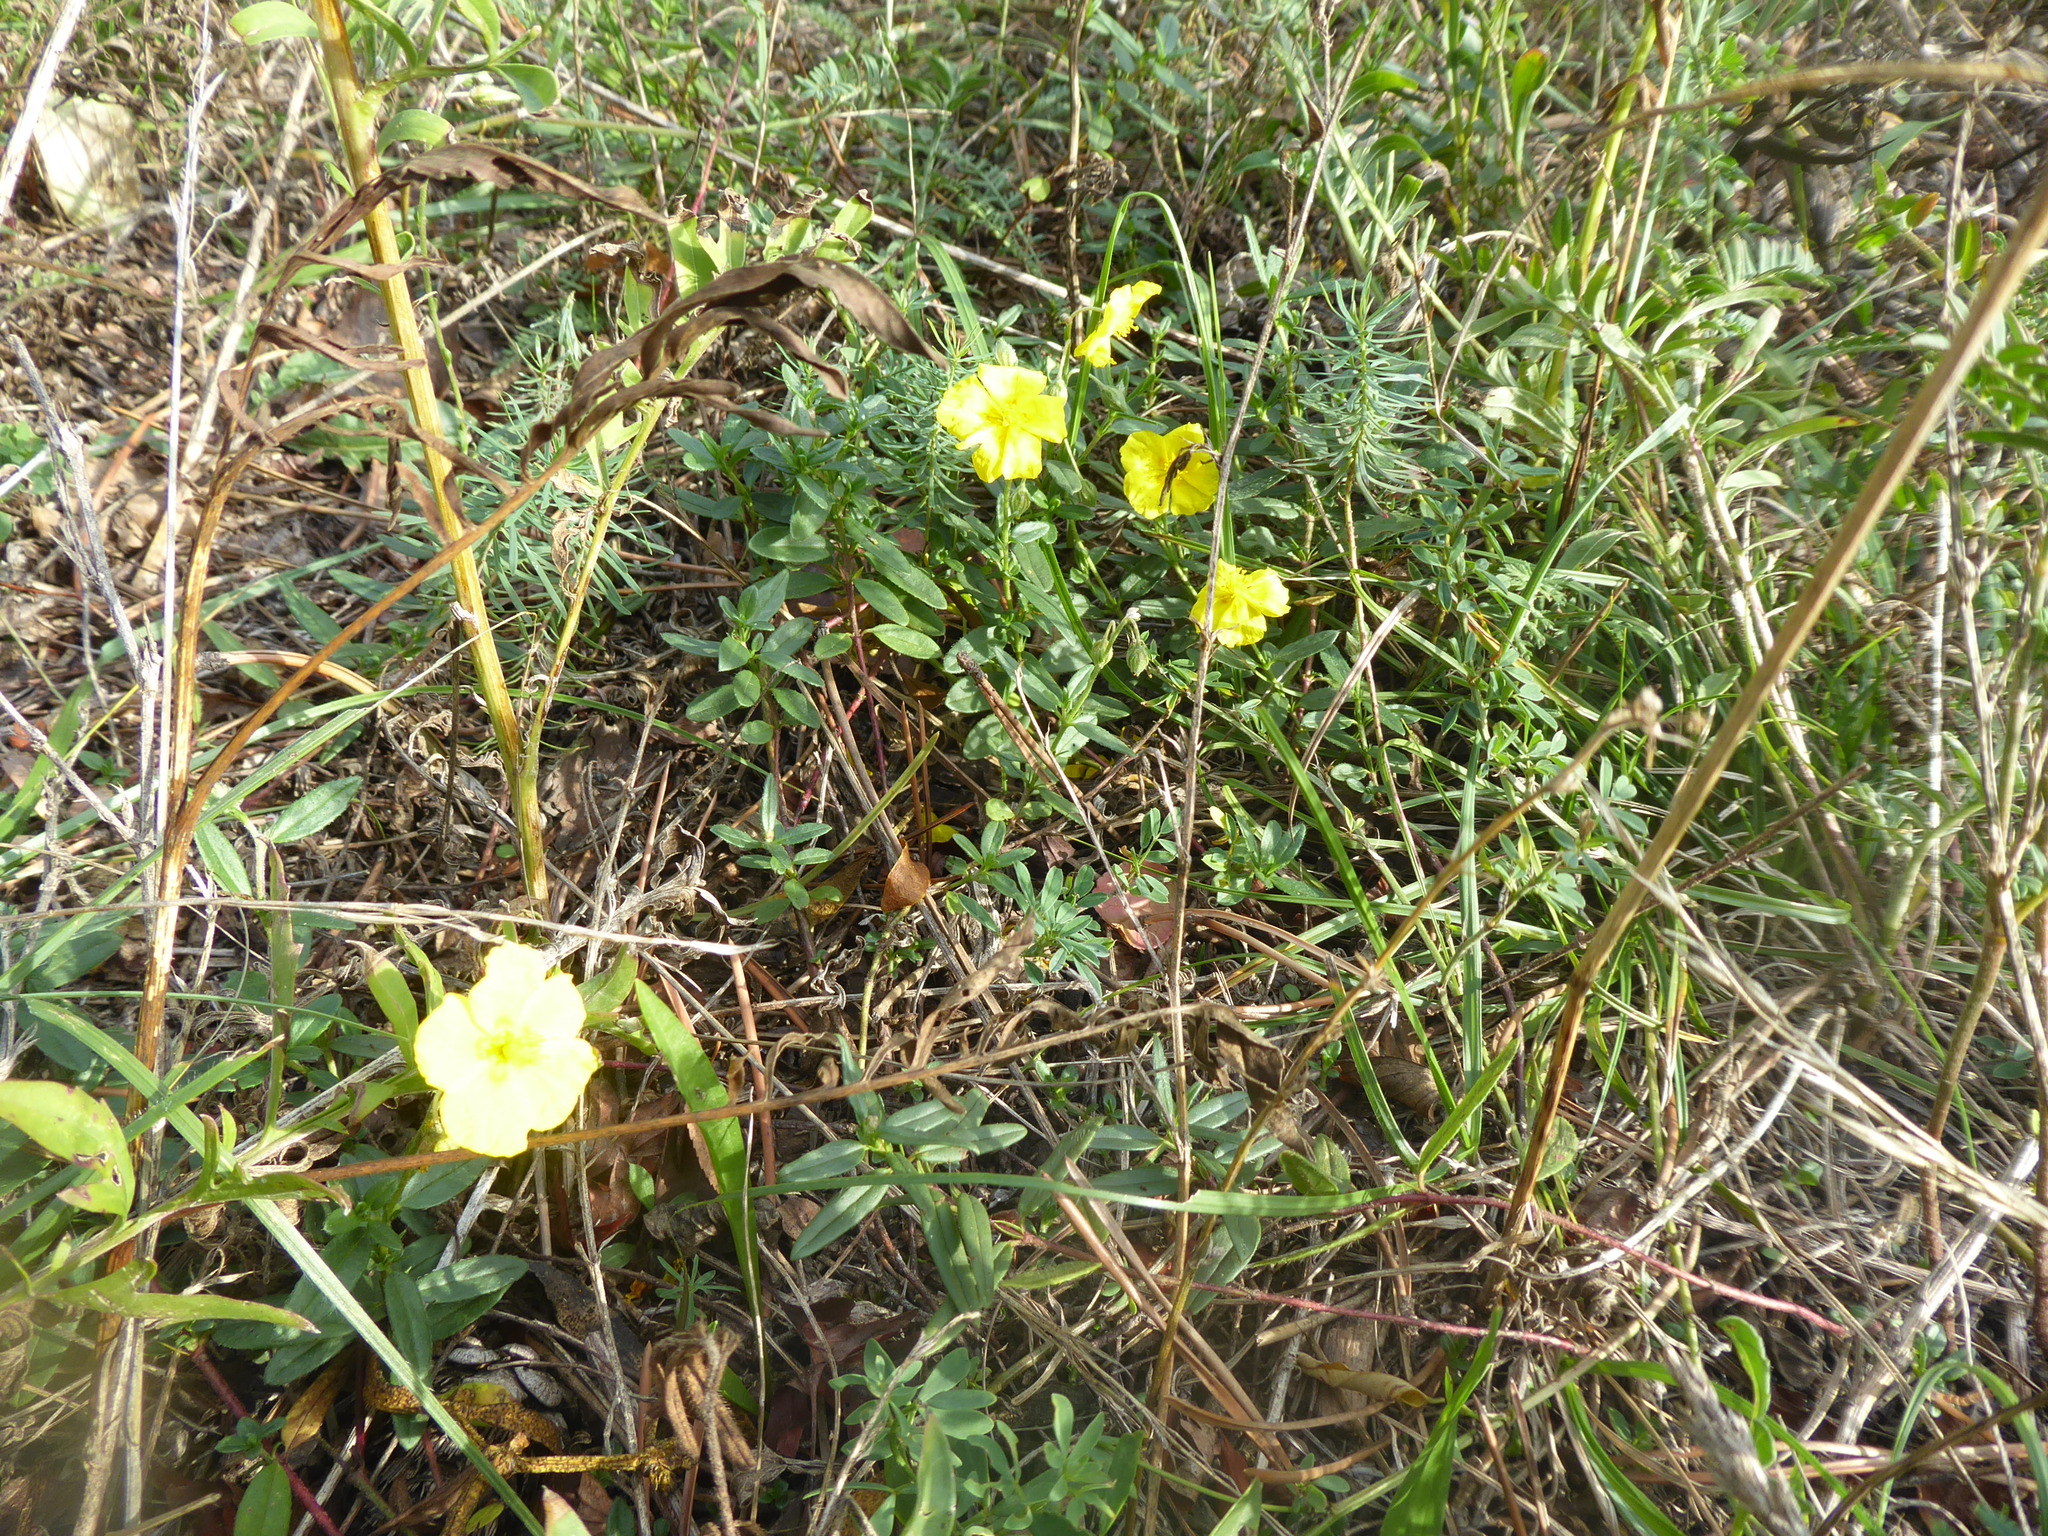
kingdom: Plantae
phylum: Tracheophyta
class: Magnoliopsida
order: Malvales
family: Cistaceae
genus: Helianthemum
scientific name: Helianthemum nummularium
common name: Common rock-rose
